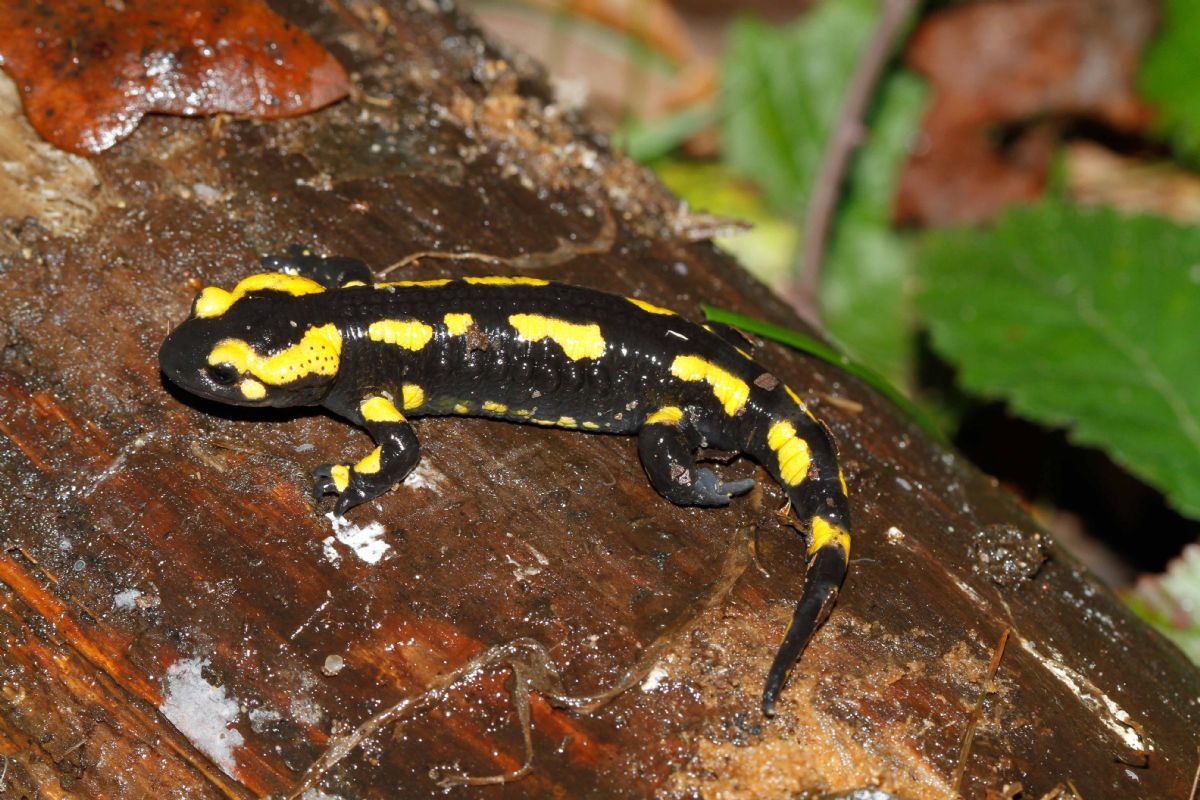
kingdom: Animalia
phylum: Chordata
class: Amphibia
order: Caudata
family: Salamandridae
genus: Salamandra
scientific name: Salamandra salamandra
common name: Fire salamander
